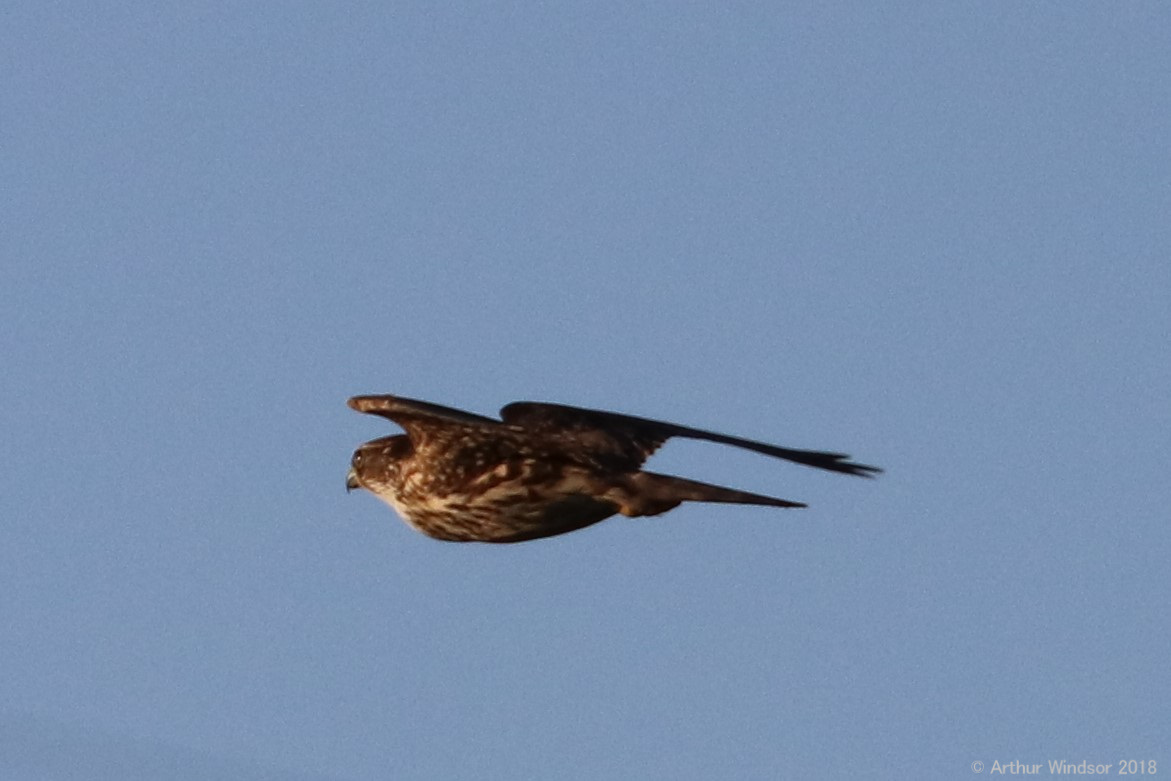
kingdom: Animalia
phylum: Chordata
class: Aves
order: Falconiformes
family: Falconidae
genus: Falco
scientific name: Falco columbarius
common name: Merlin
